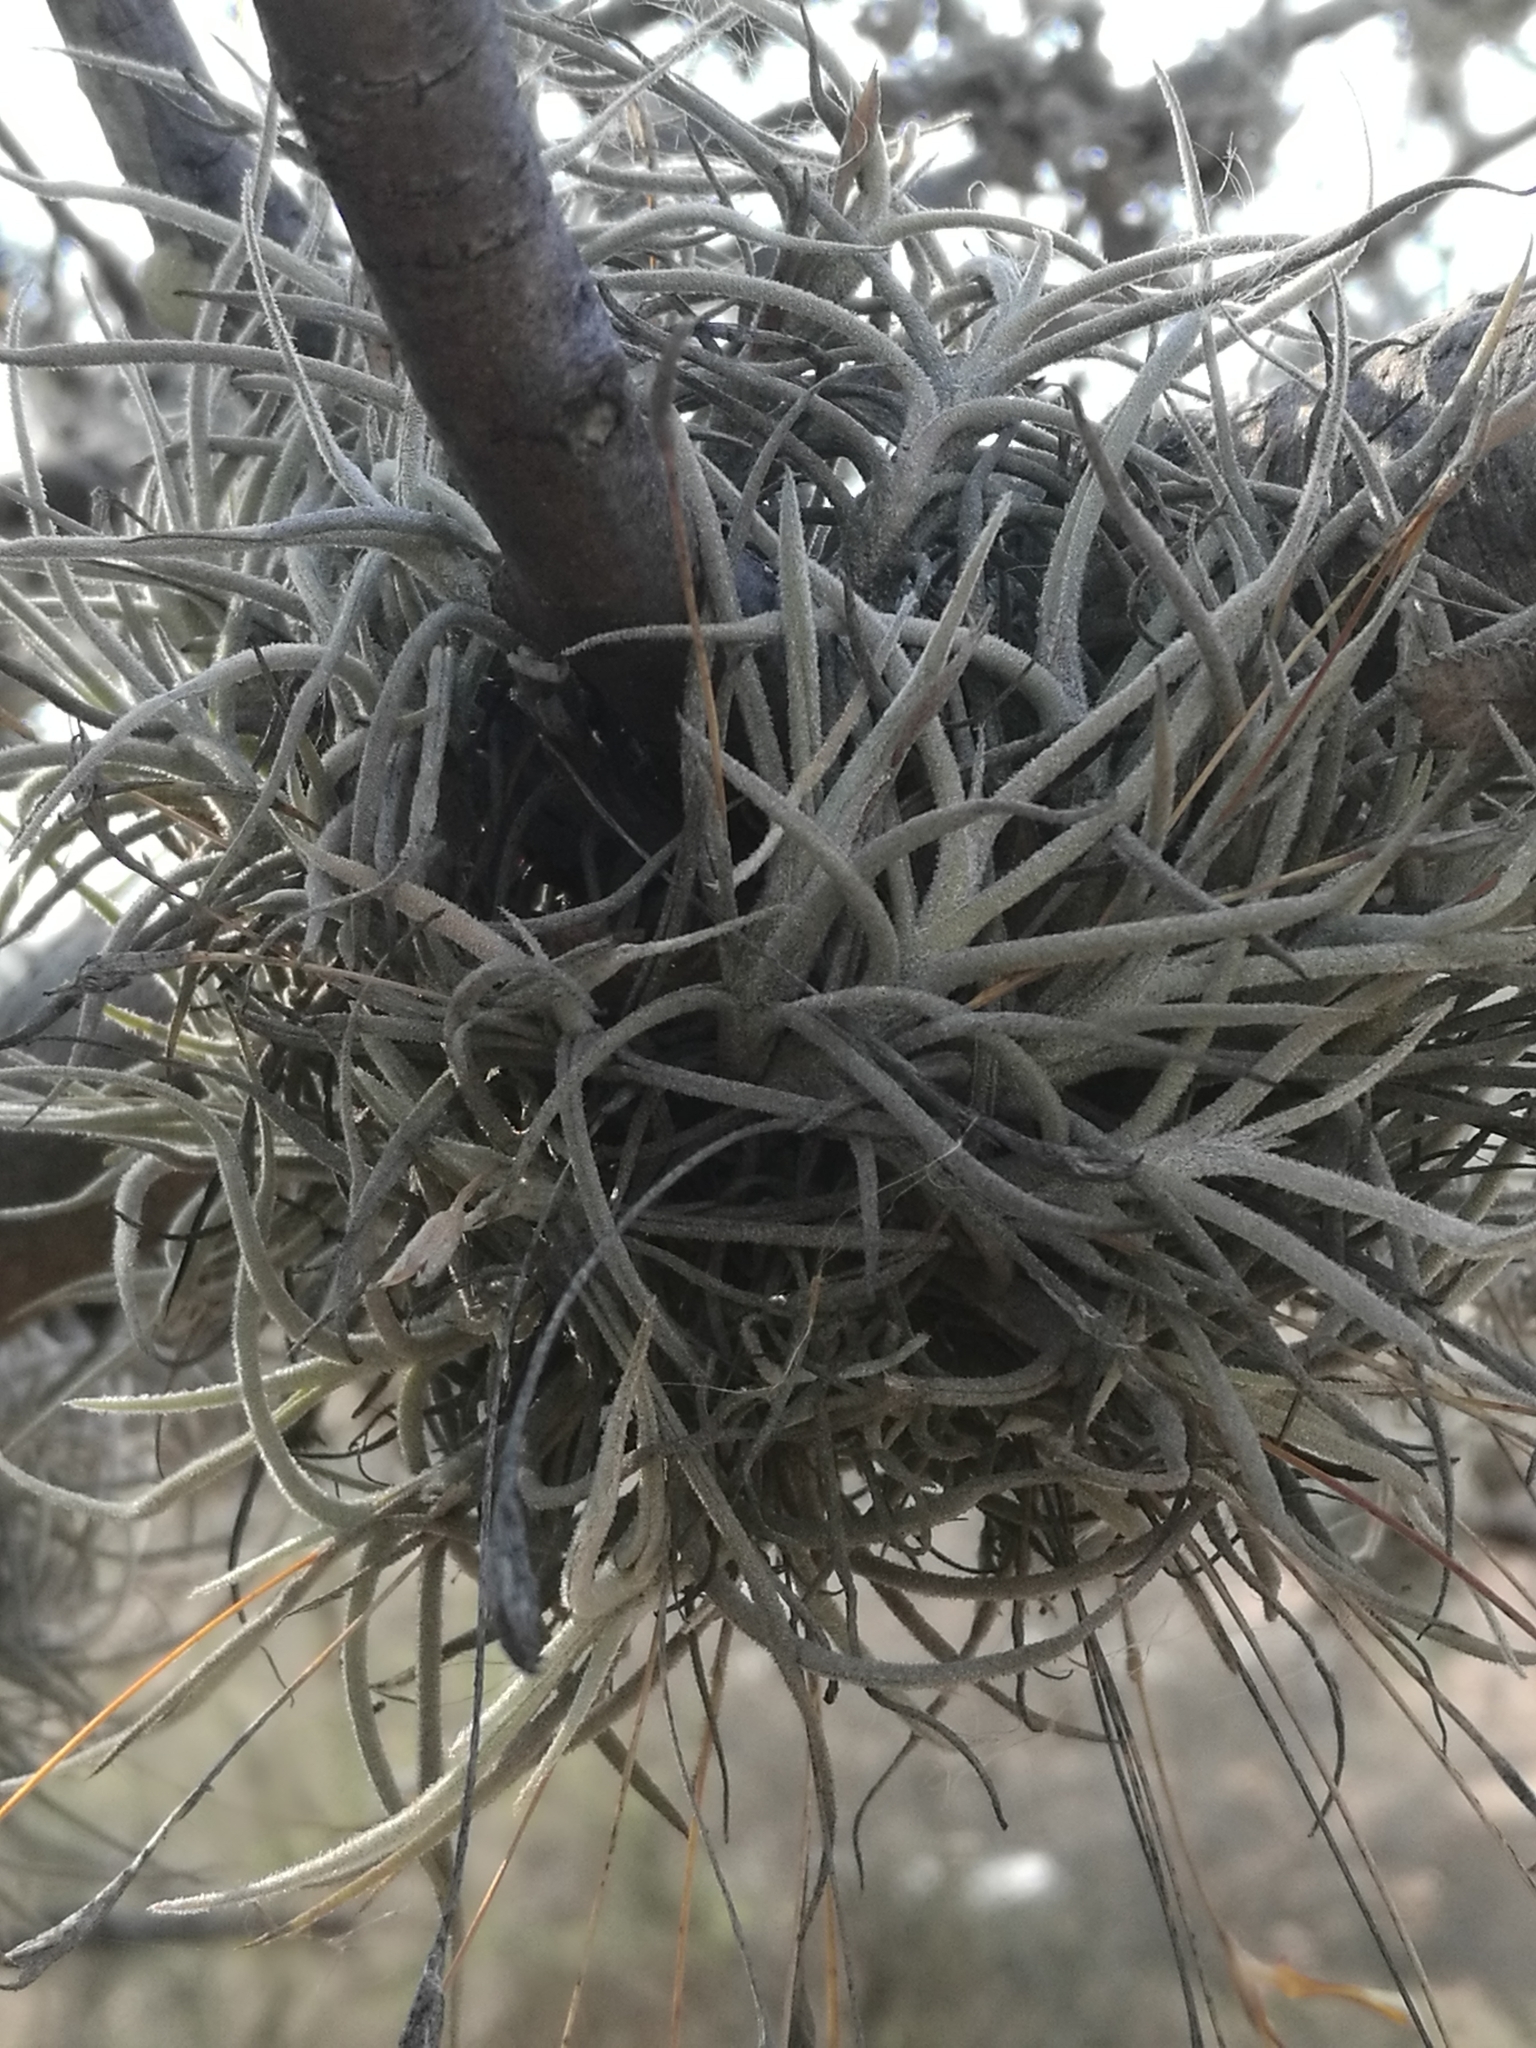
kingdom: Plantae
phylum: Tracheophyta
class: Liliopsida
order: Poales
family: Bromeliaceae
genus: Tillandsia
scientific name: Tillandsia recurvata
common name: Small ballmoss
